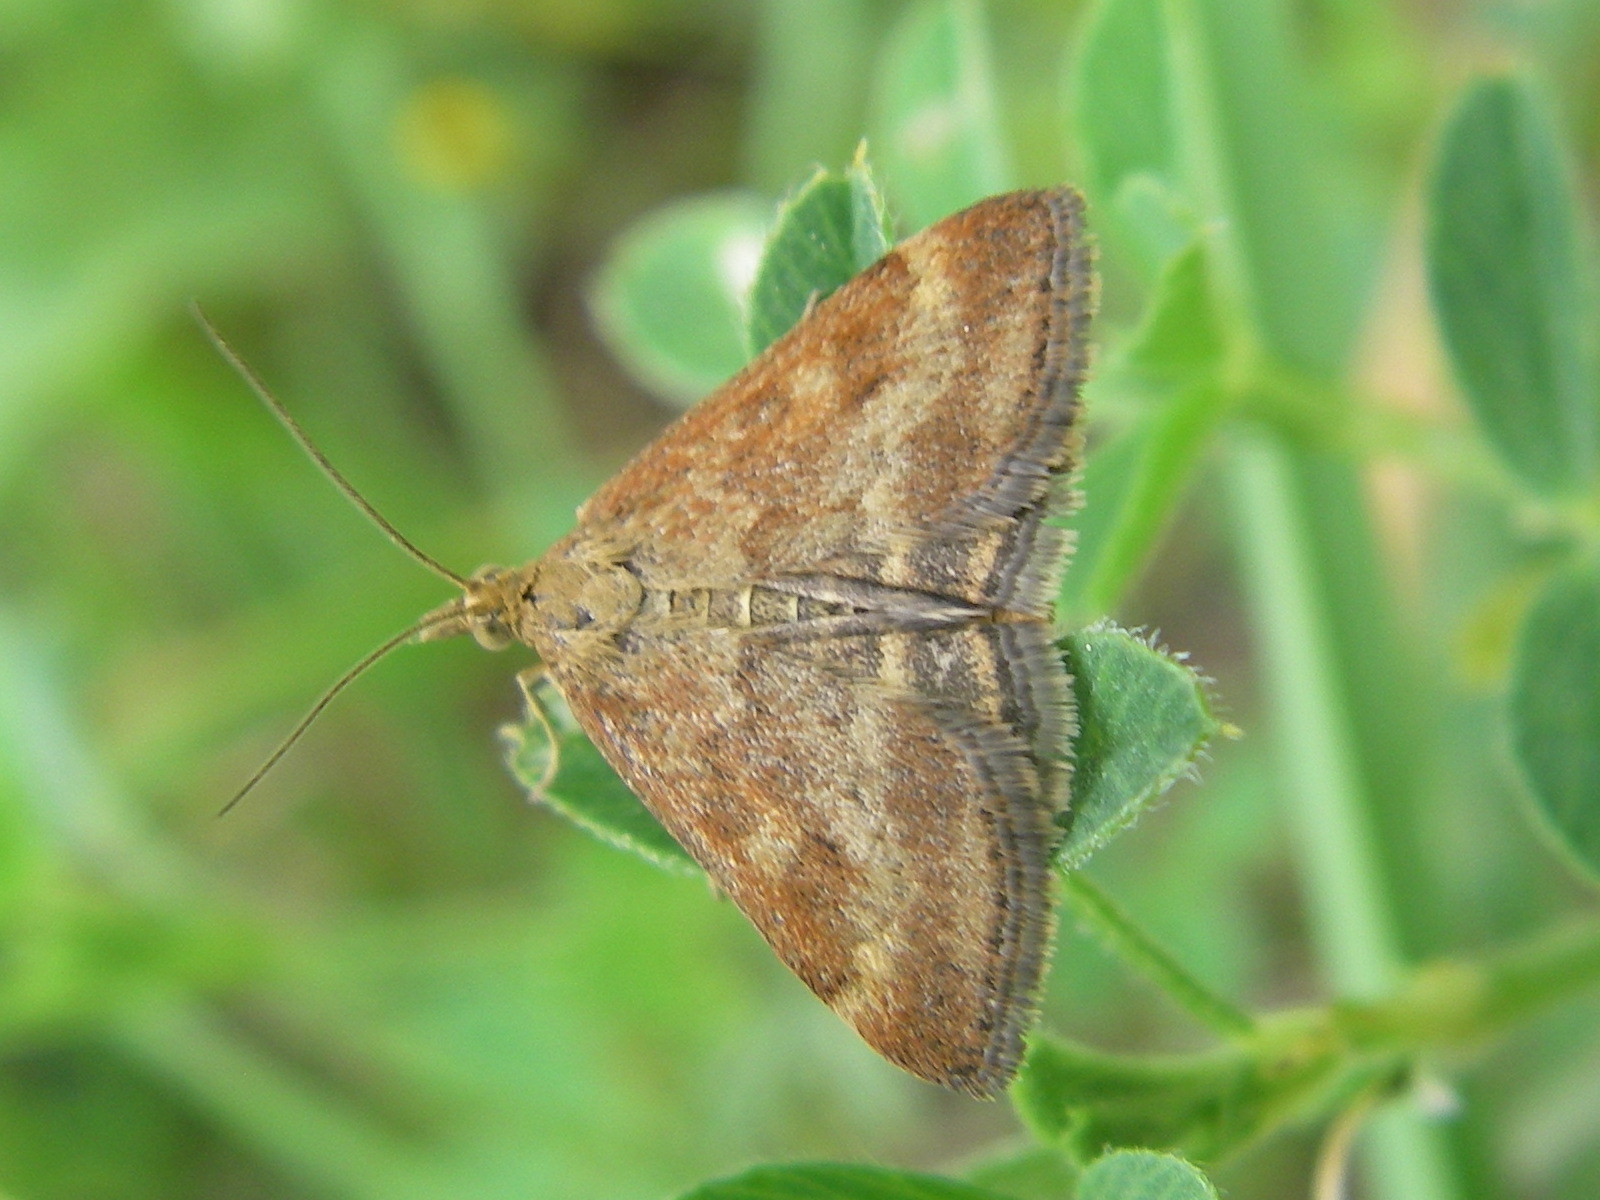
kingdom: Animalia
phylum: Arthropoda
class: Insecta
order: Lepidoptera
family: Crambidae
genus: Pyrausta
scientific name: Pyrausta despicata
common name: Straw-barred pearl
